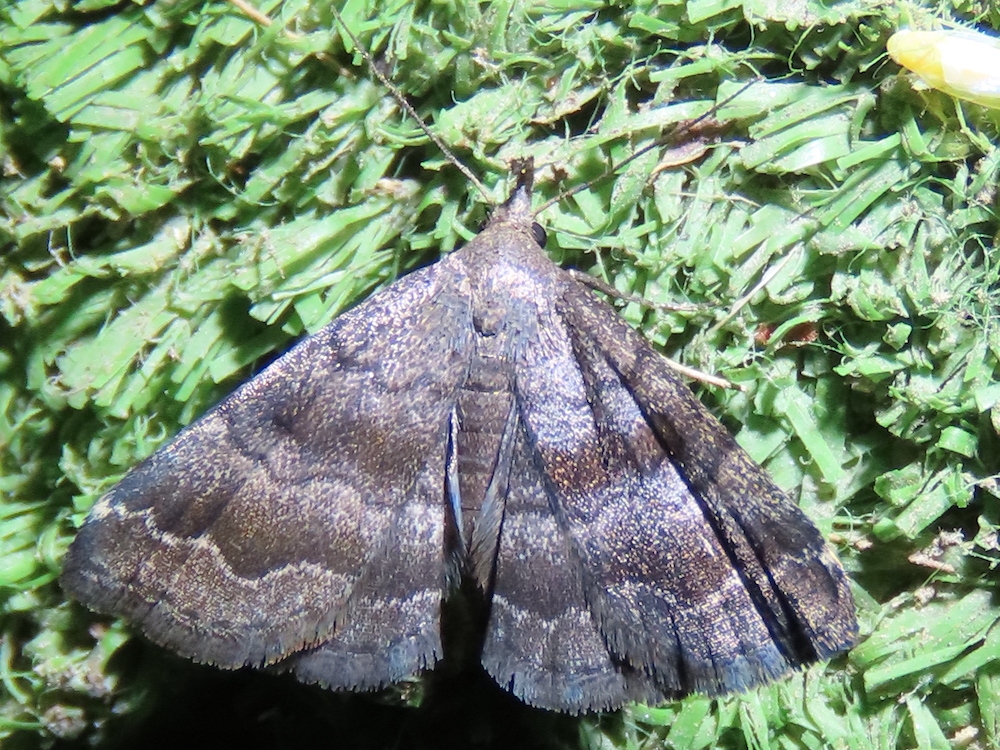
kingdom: Animalia
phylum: Arthropoda
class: Insecta
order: Lepidoptera
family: Erebidae
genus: Phalaenostola
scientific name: Phalaenostola larentioides
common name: Black-banded owlet
